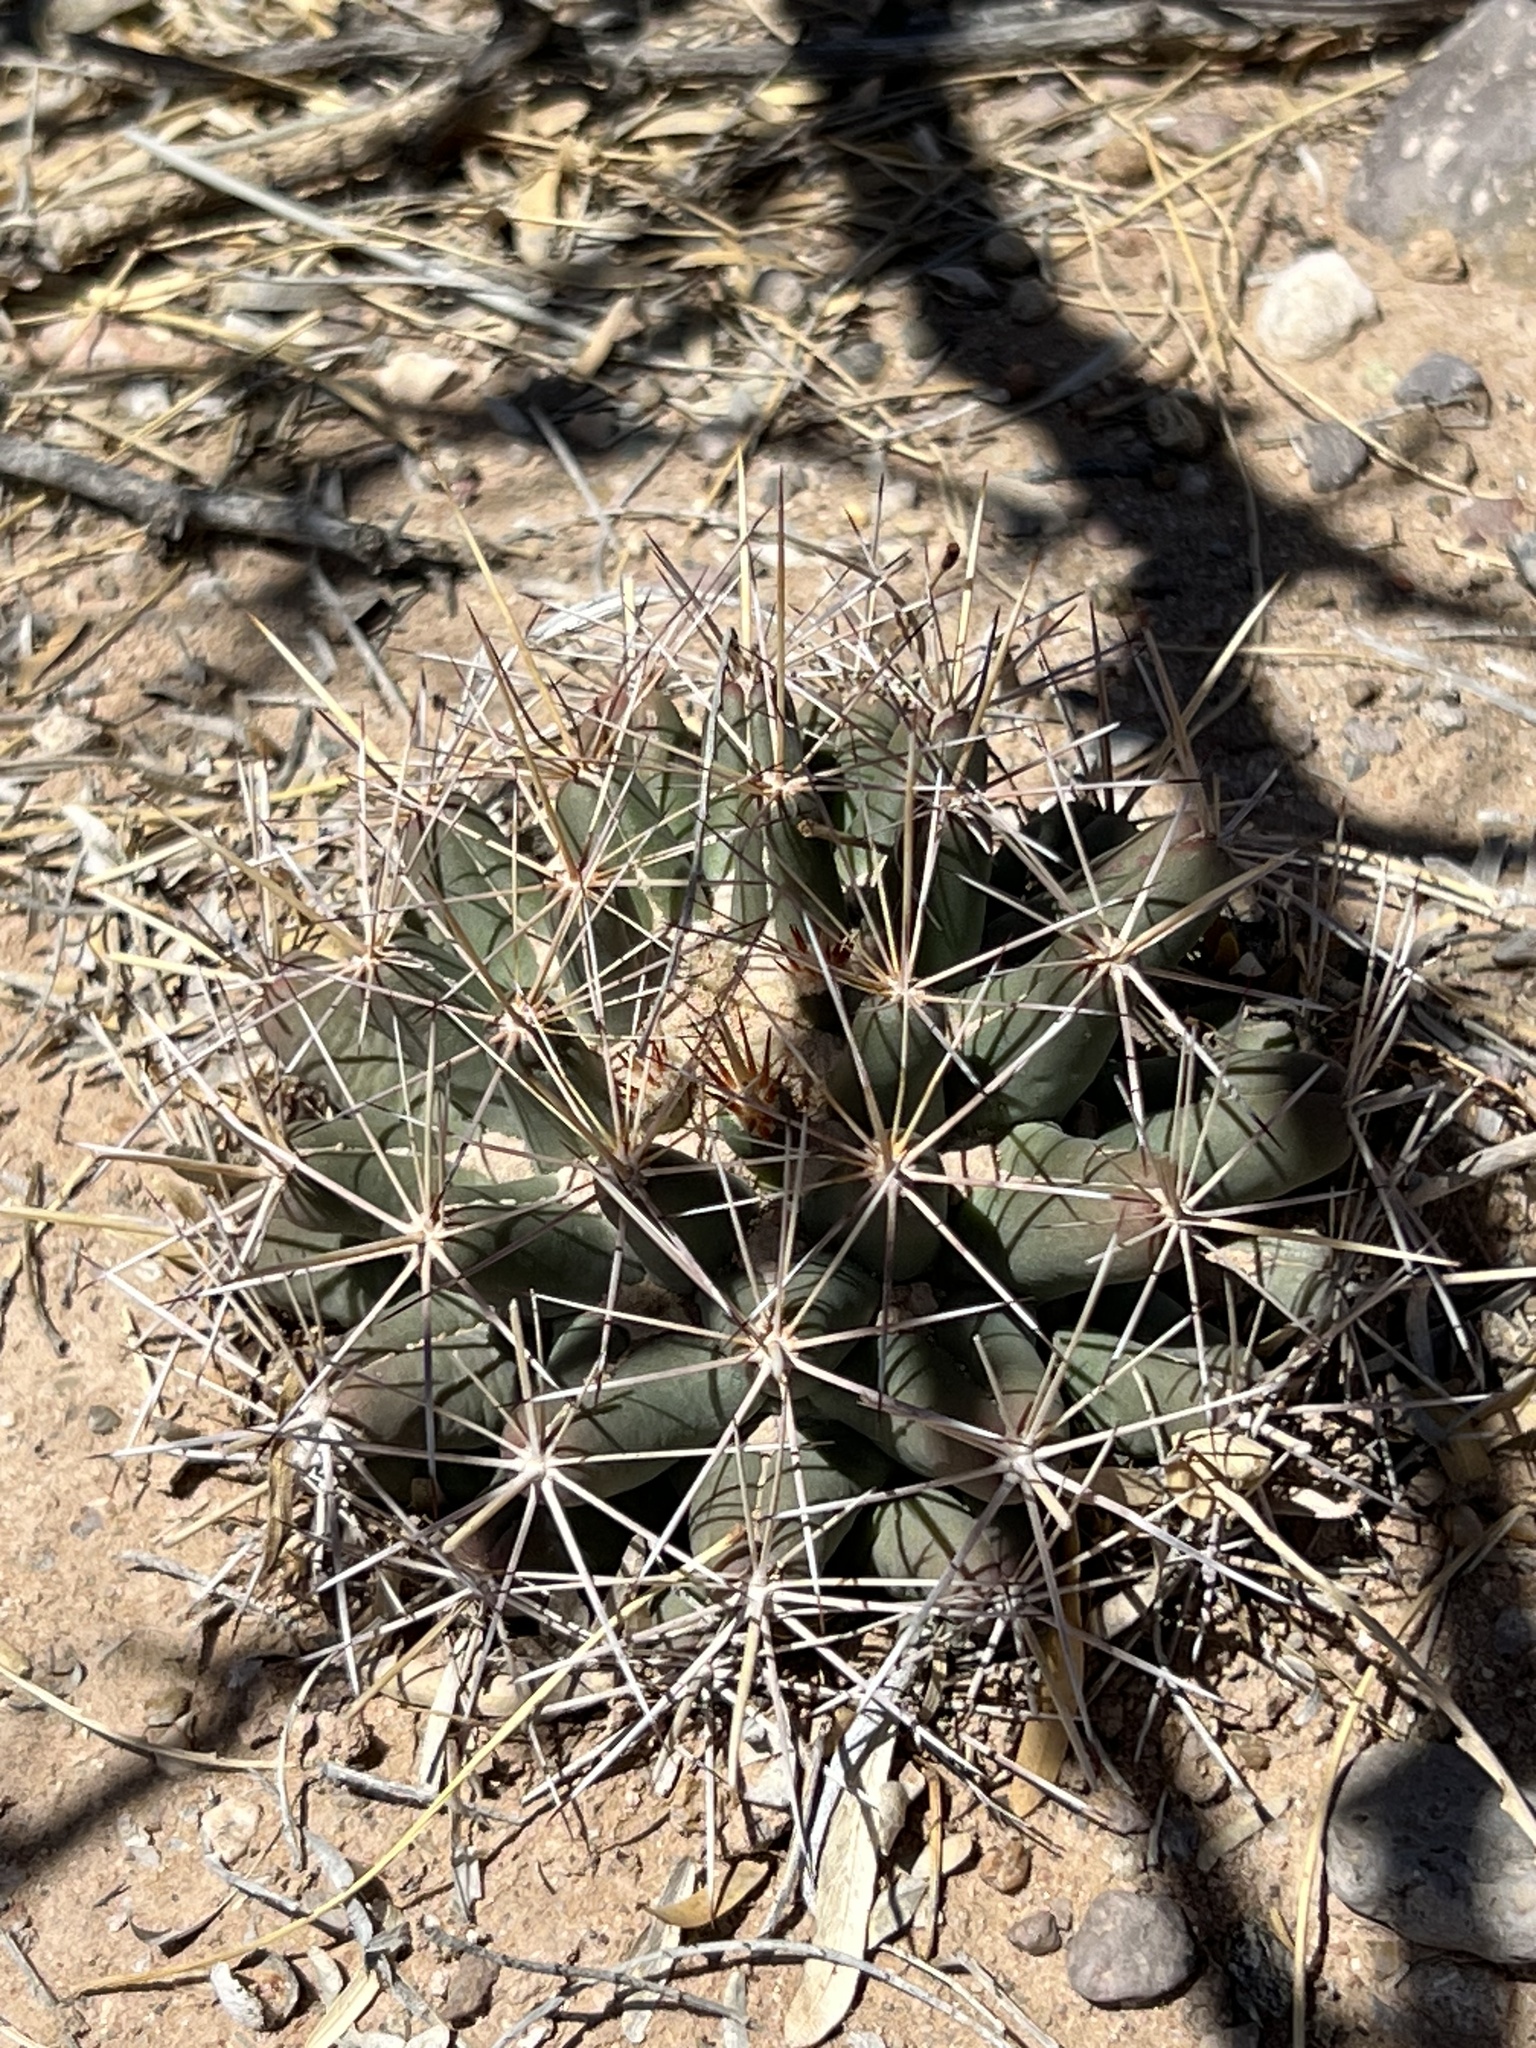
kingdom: Plantae
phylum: Tracheophyta
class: Magnoliopsida
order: Caryophyllales
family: Cactaceae
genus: Coryphantha
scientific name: Coryphantha robustispina
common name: Pima pineapple cactus
